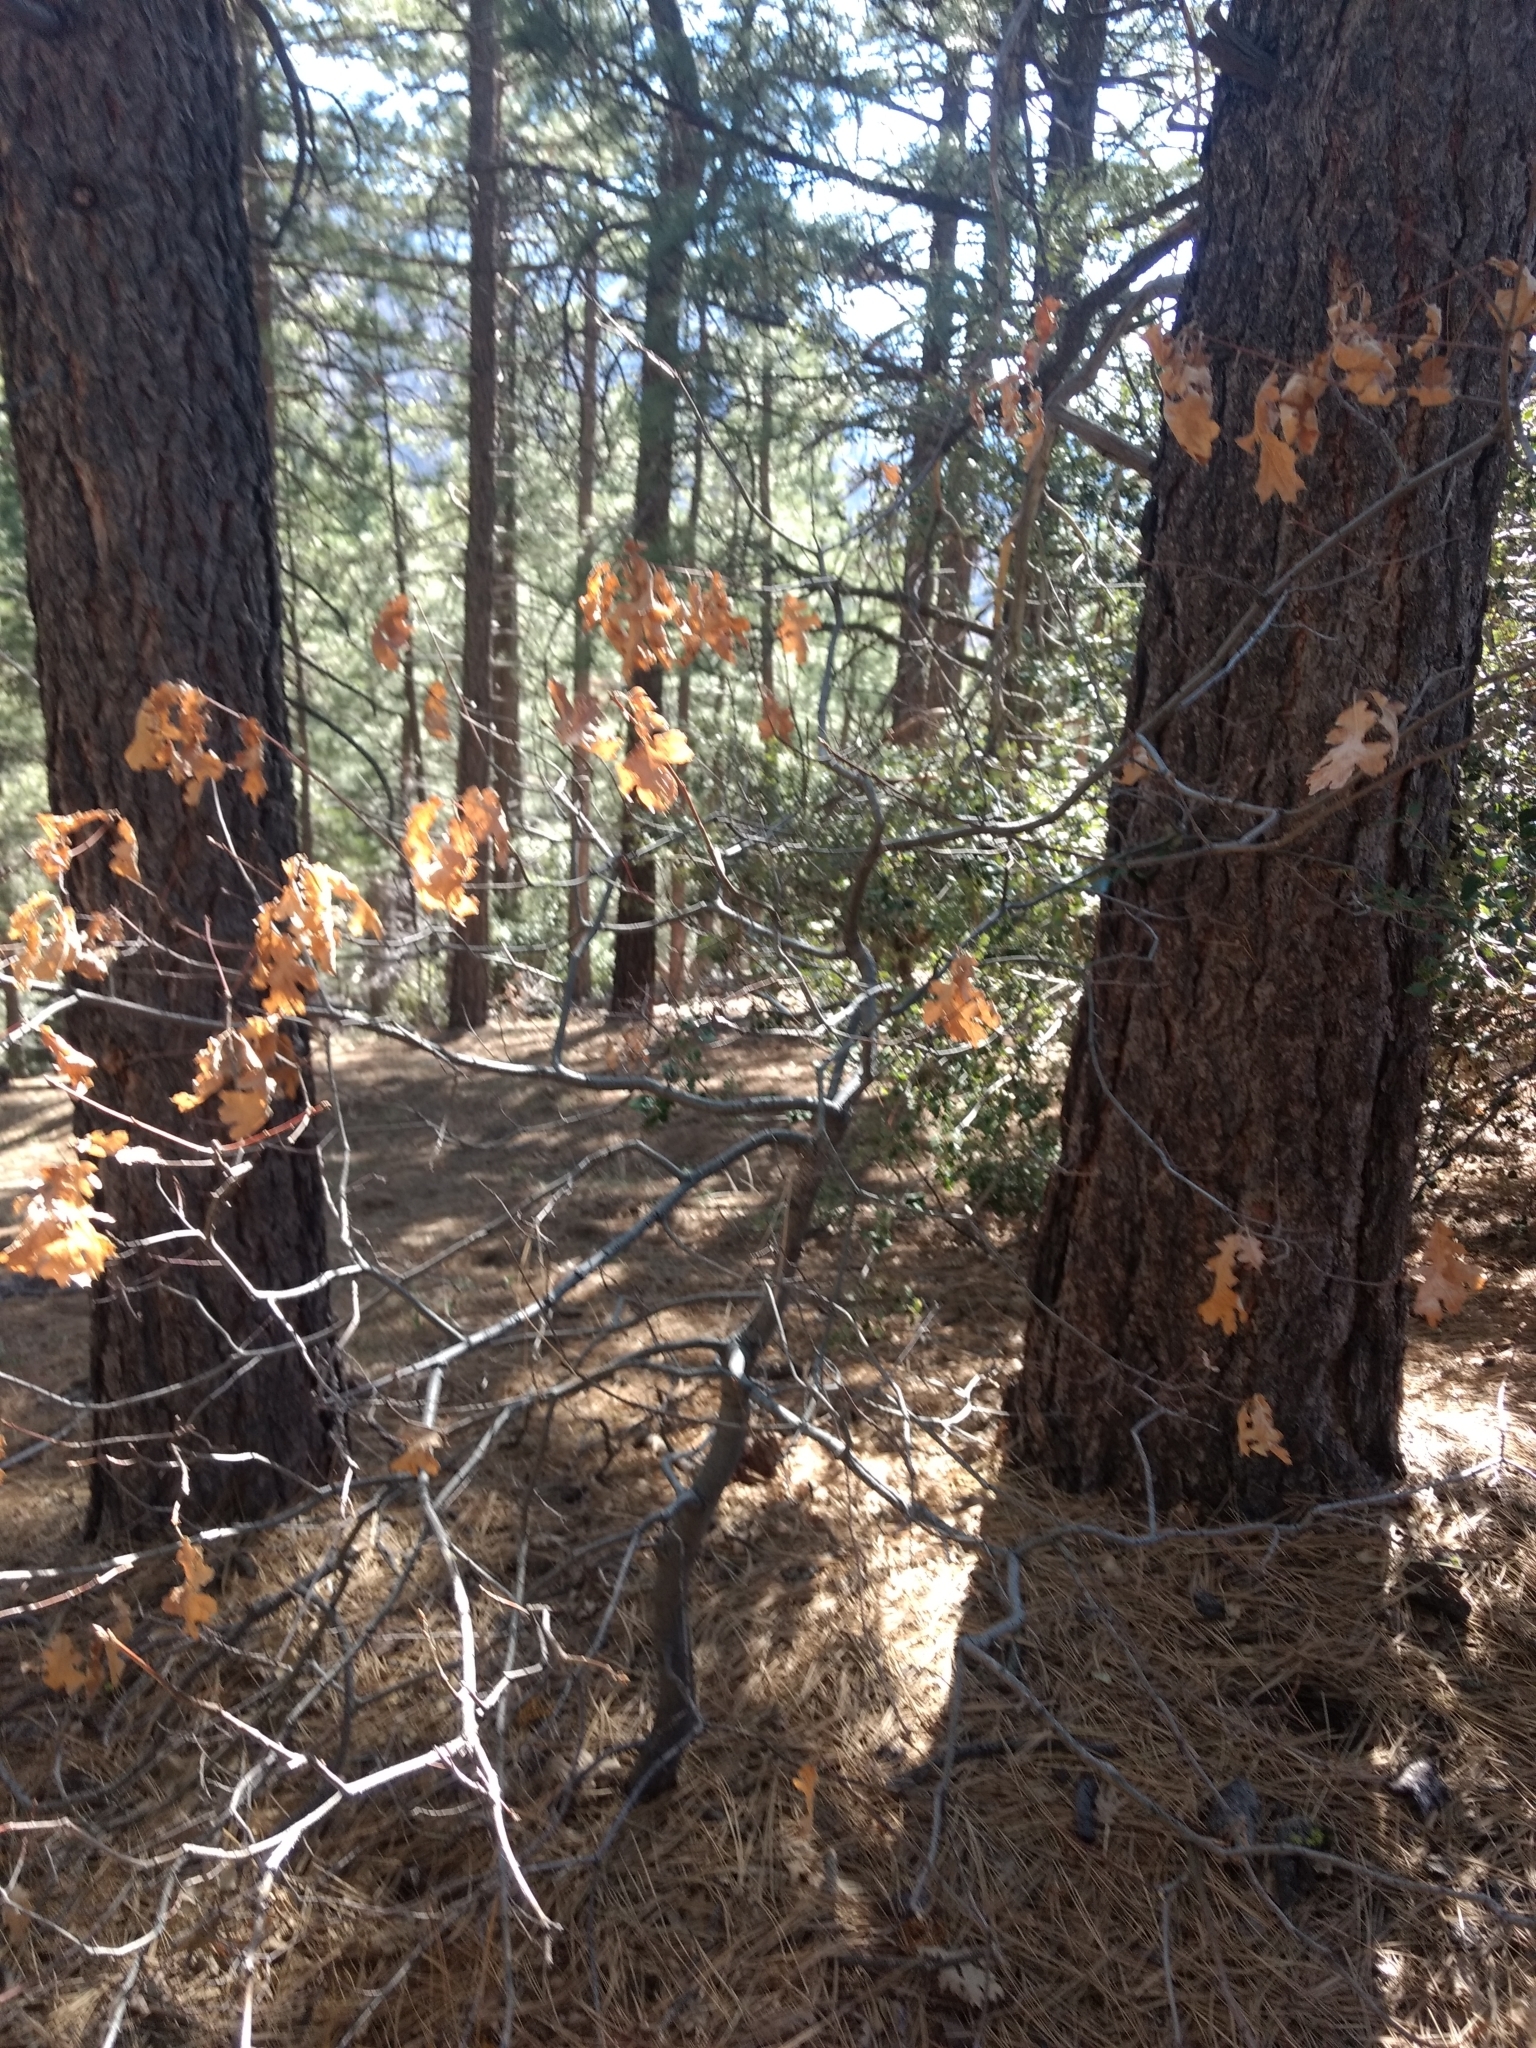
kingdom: Plantae
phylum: Tracheophyta
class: Magnoliopsida
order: Fagales
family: Fagaceae
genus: Quercus
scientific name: Quercus kelloggii
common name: California black oak
